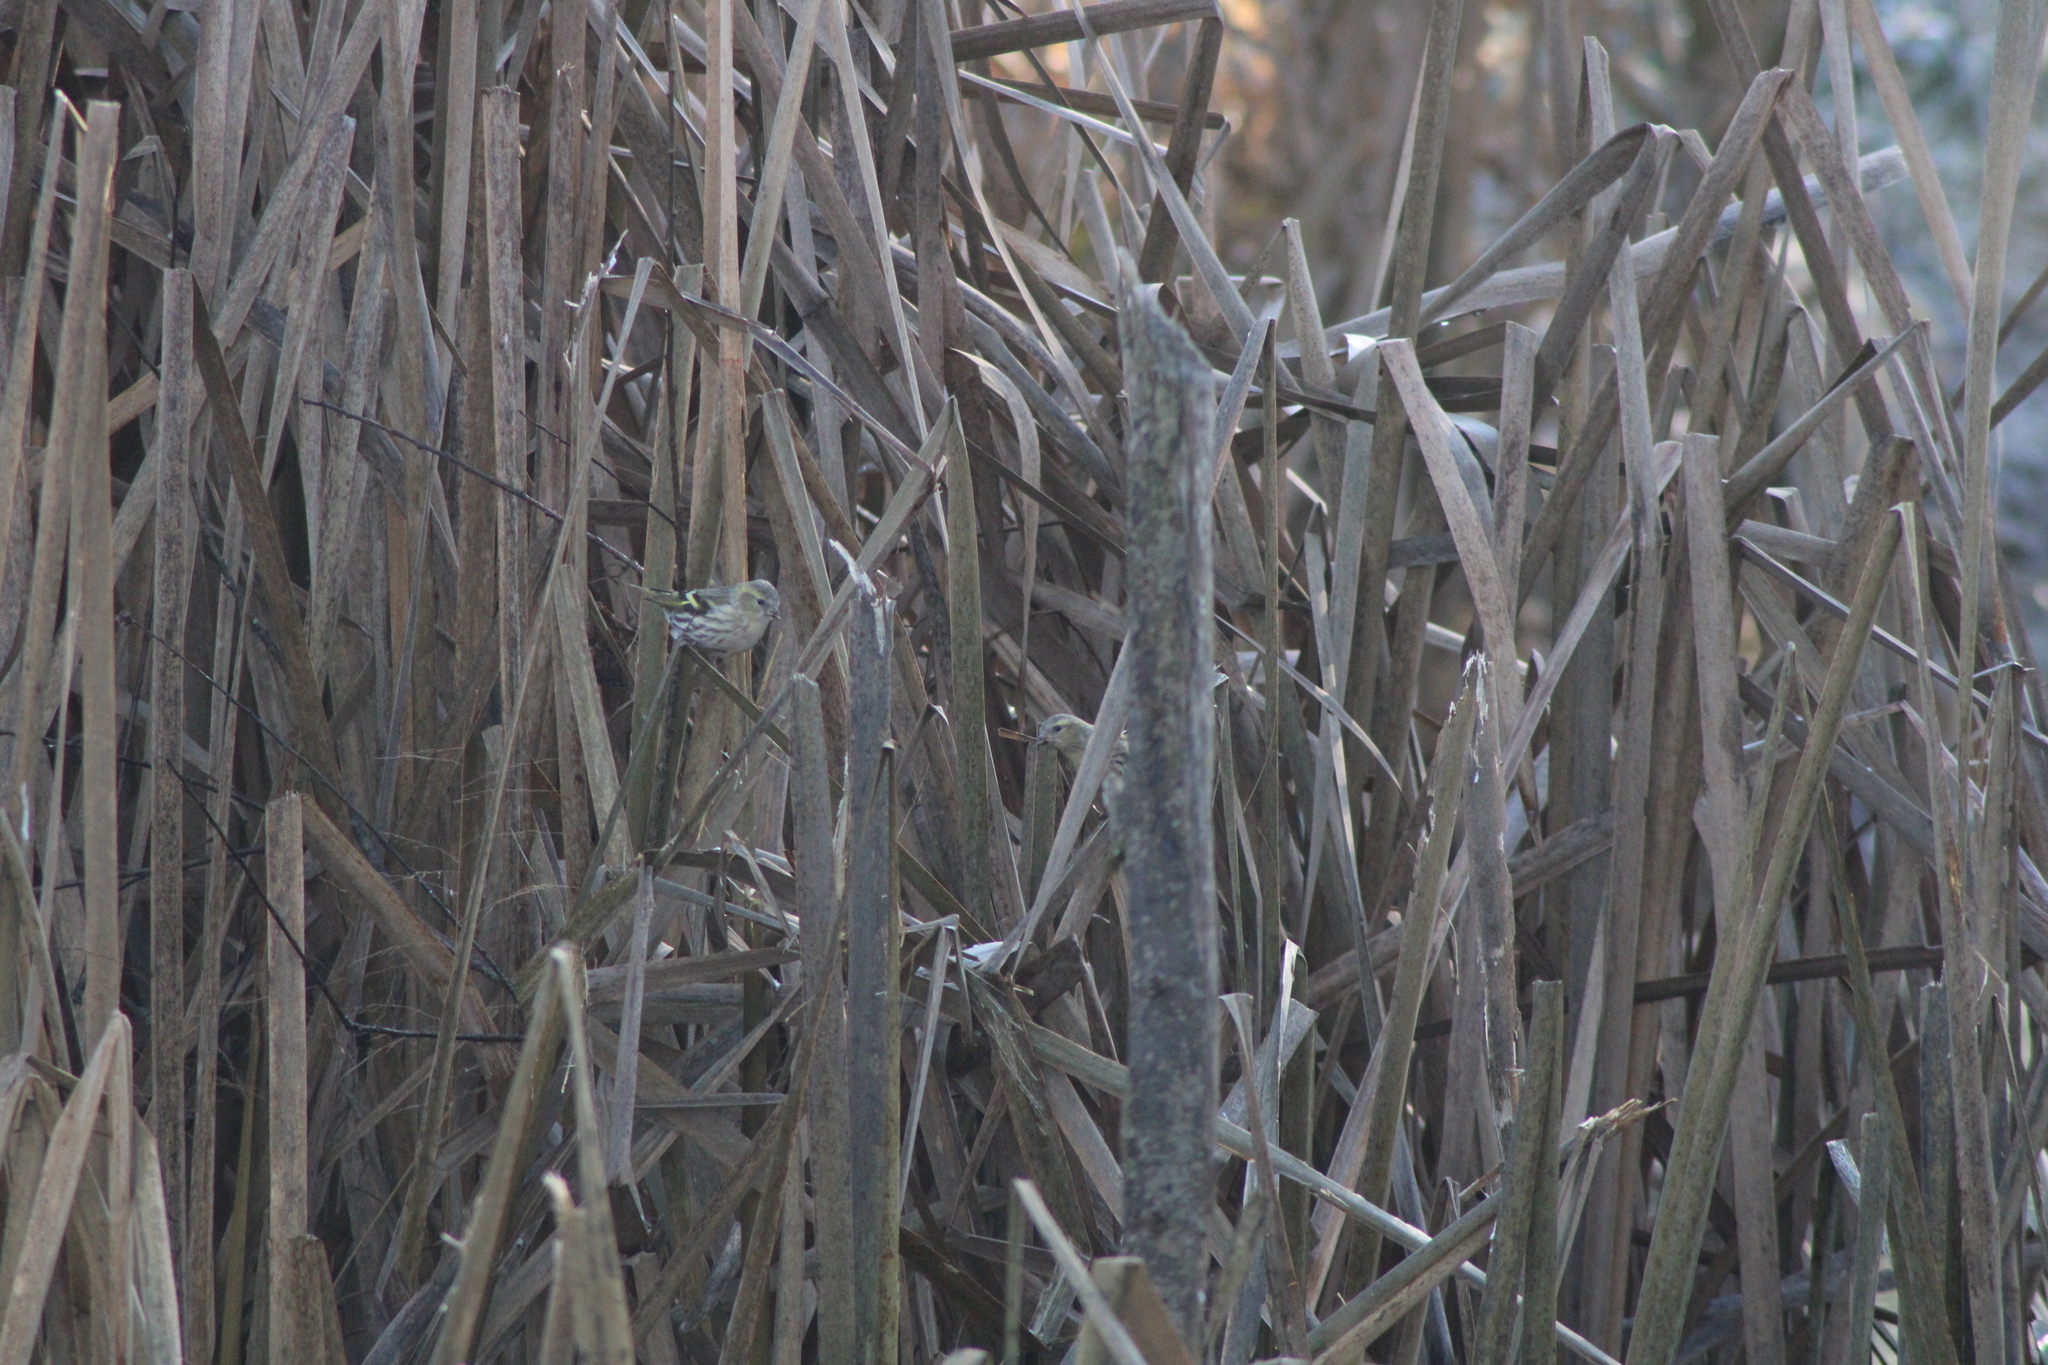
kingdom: Animalia
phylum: Chordata
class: Aves
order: Passeriformes
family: Fringillidae
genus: Spinus
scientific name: Spinus spinus
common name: Eurasian siskin
